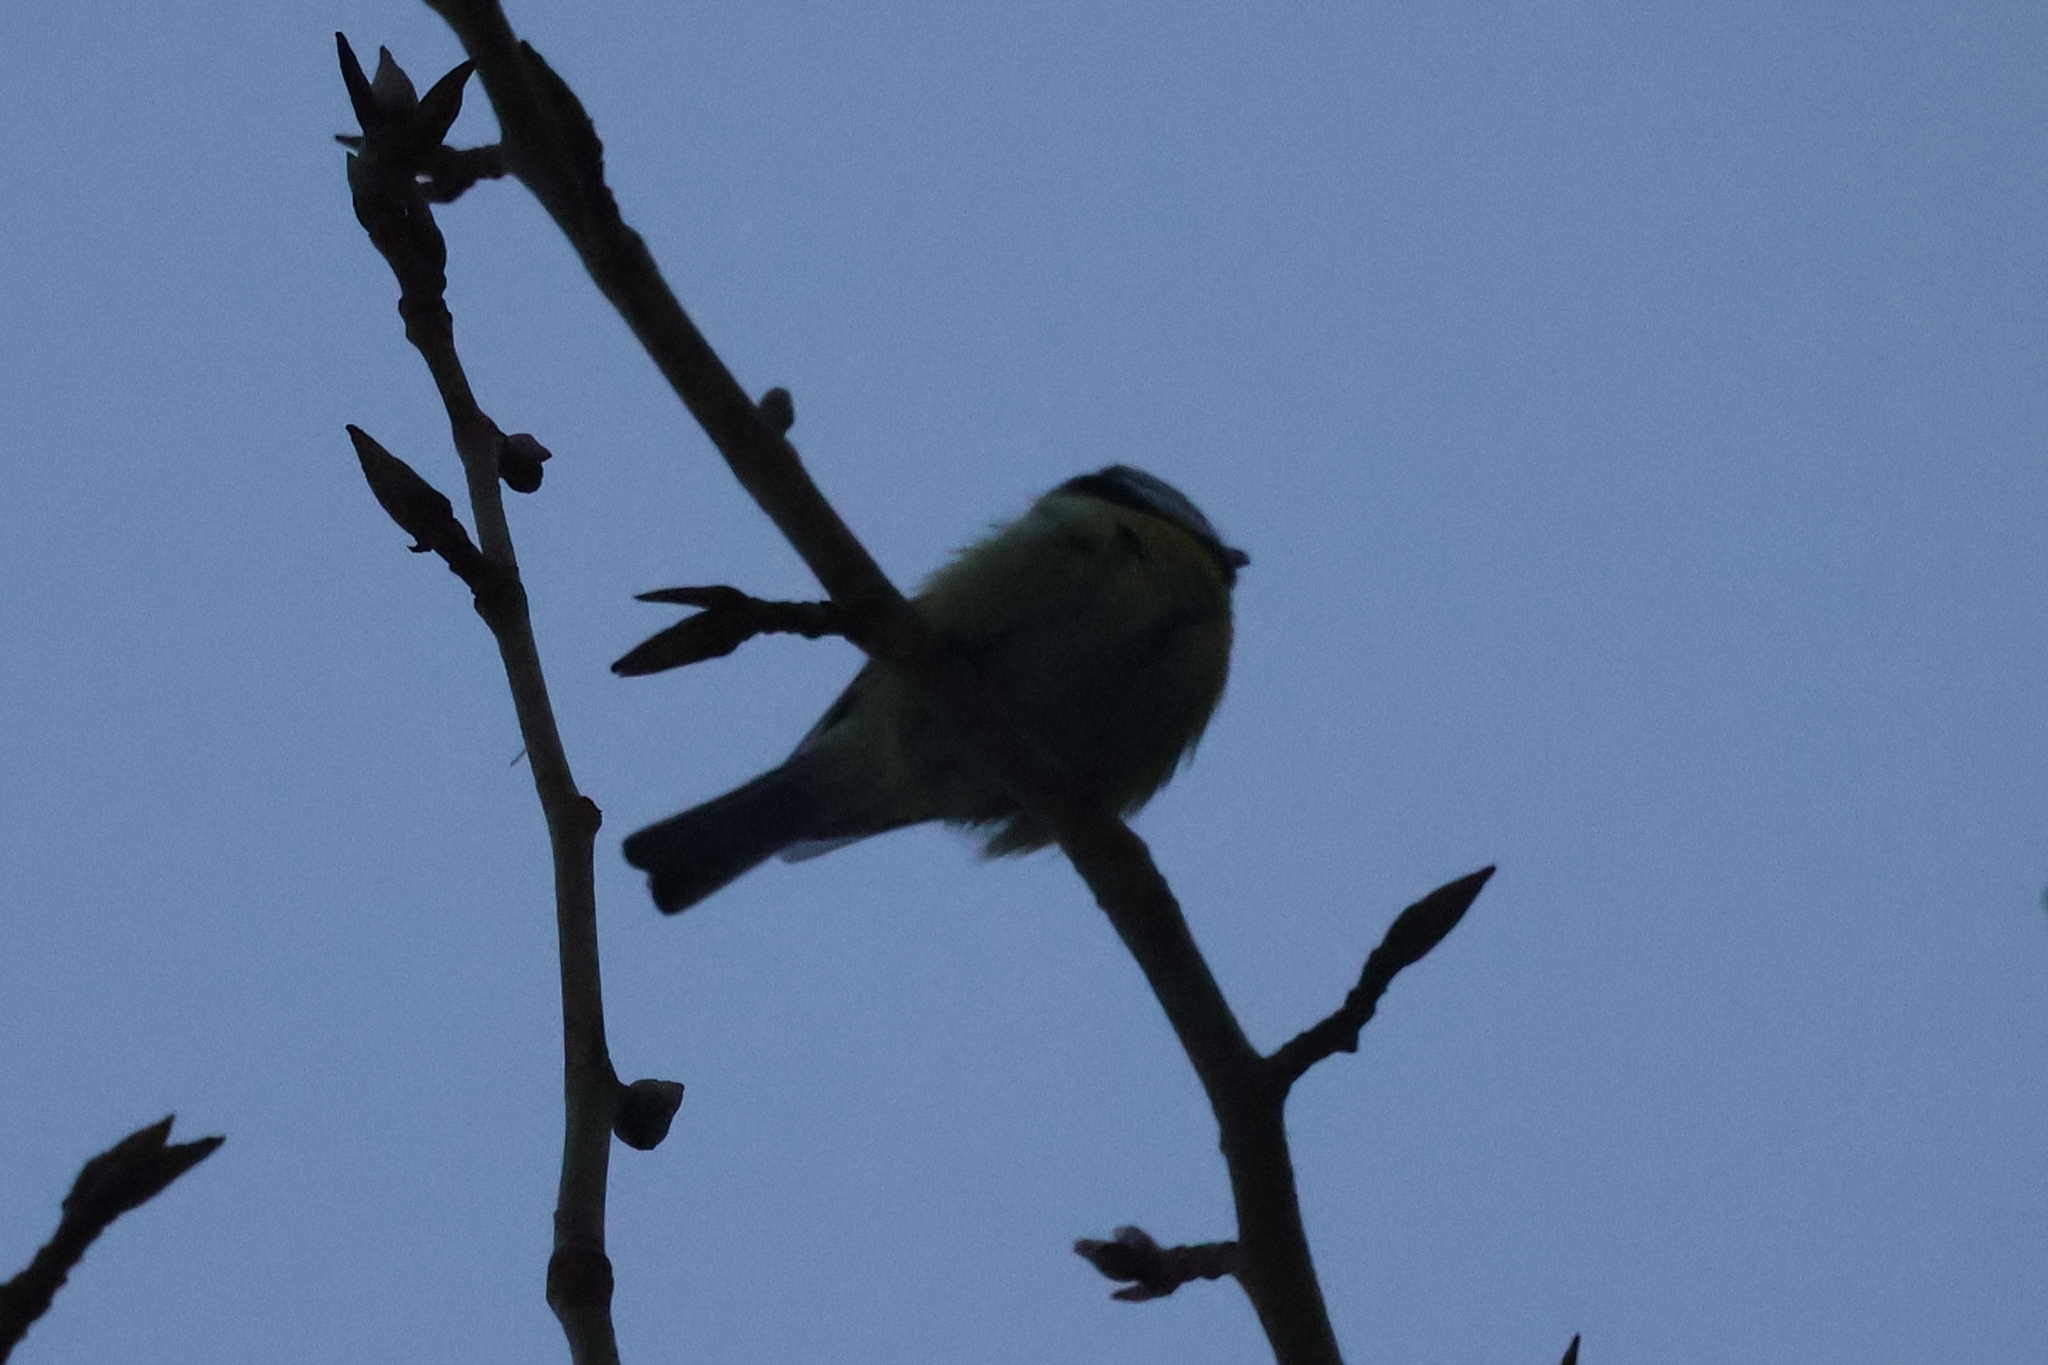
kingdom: Animalia
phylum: Chordata
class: Aves
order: Passeriformes
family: Paridae
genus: Cyanistes
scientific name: Cyanistes caeruleus
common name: Eurasian blue tit
